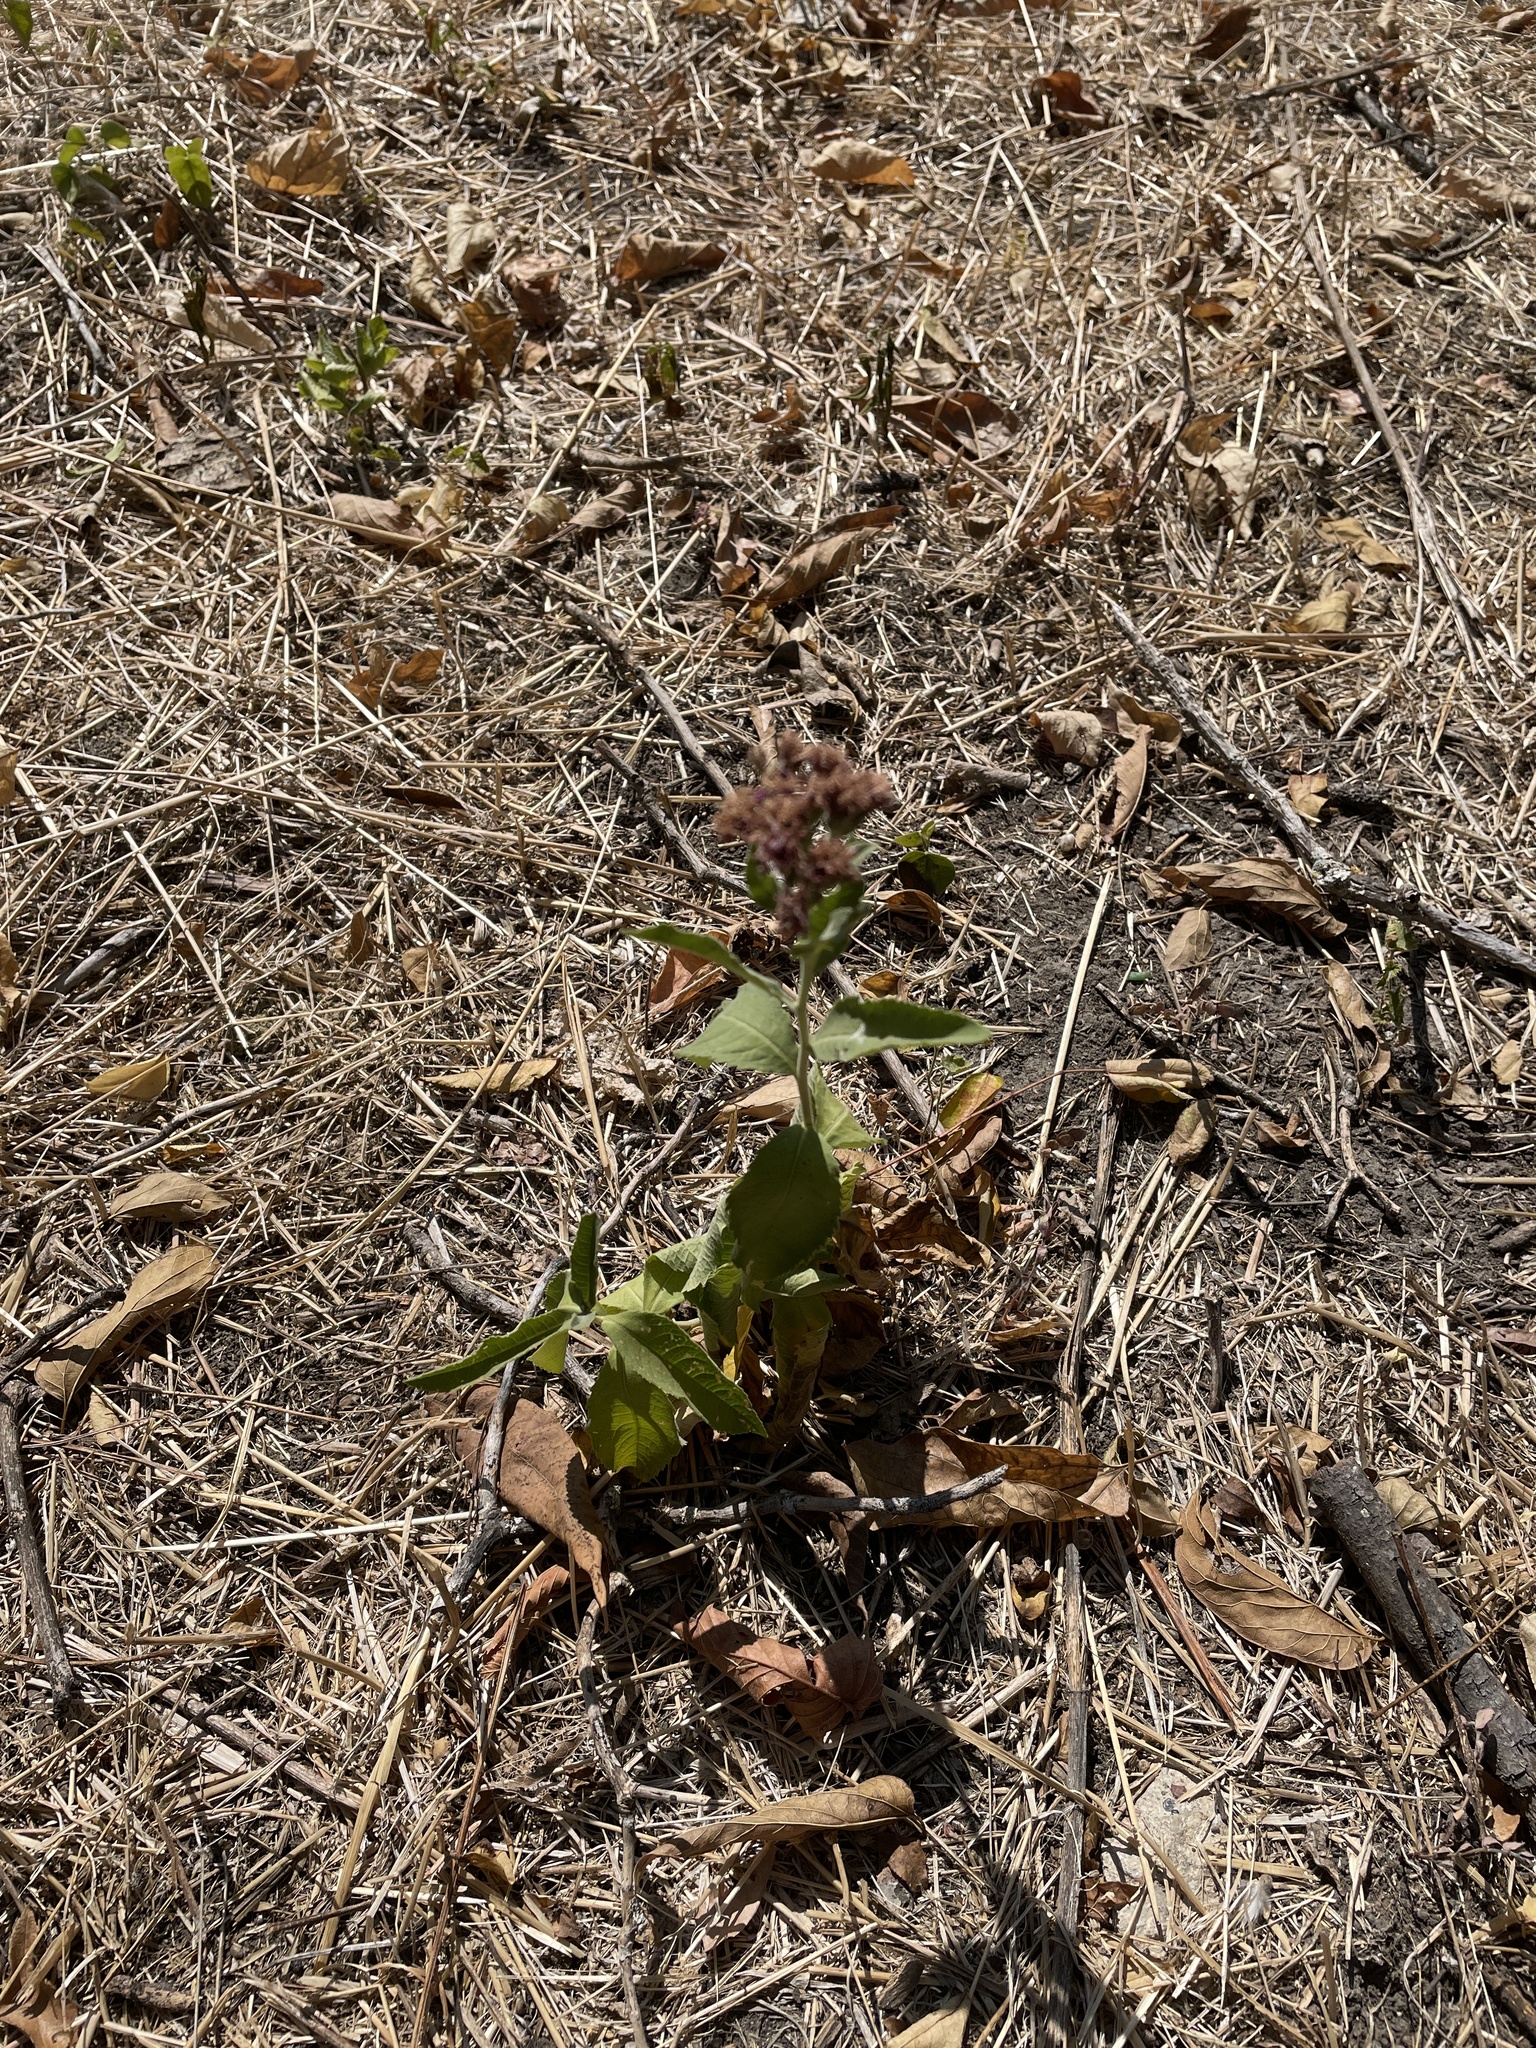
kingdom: Plantae
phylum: Tracheophyta
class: Magnoliopsida
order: Asterales
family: Asteraceae
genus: Vernonia
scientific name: Vernonia baldwinii
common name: Western ironweed
